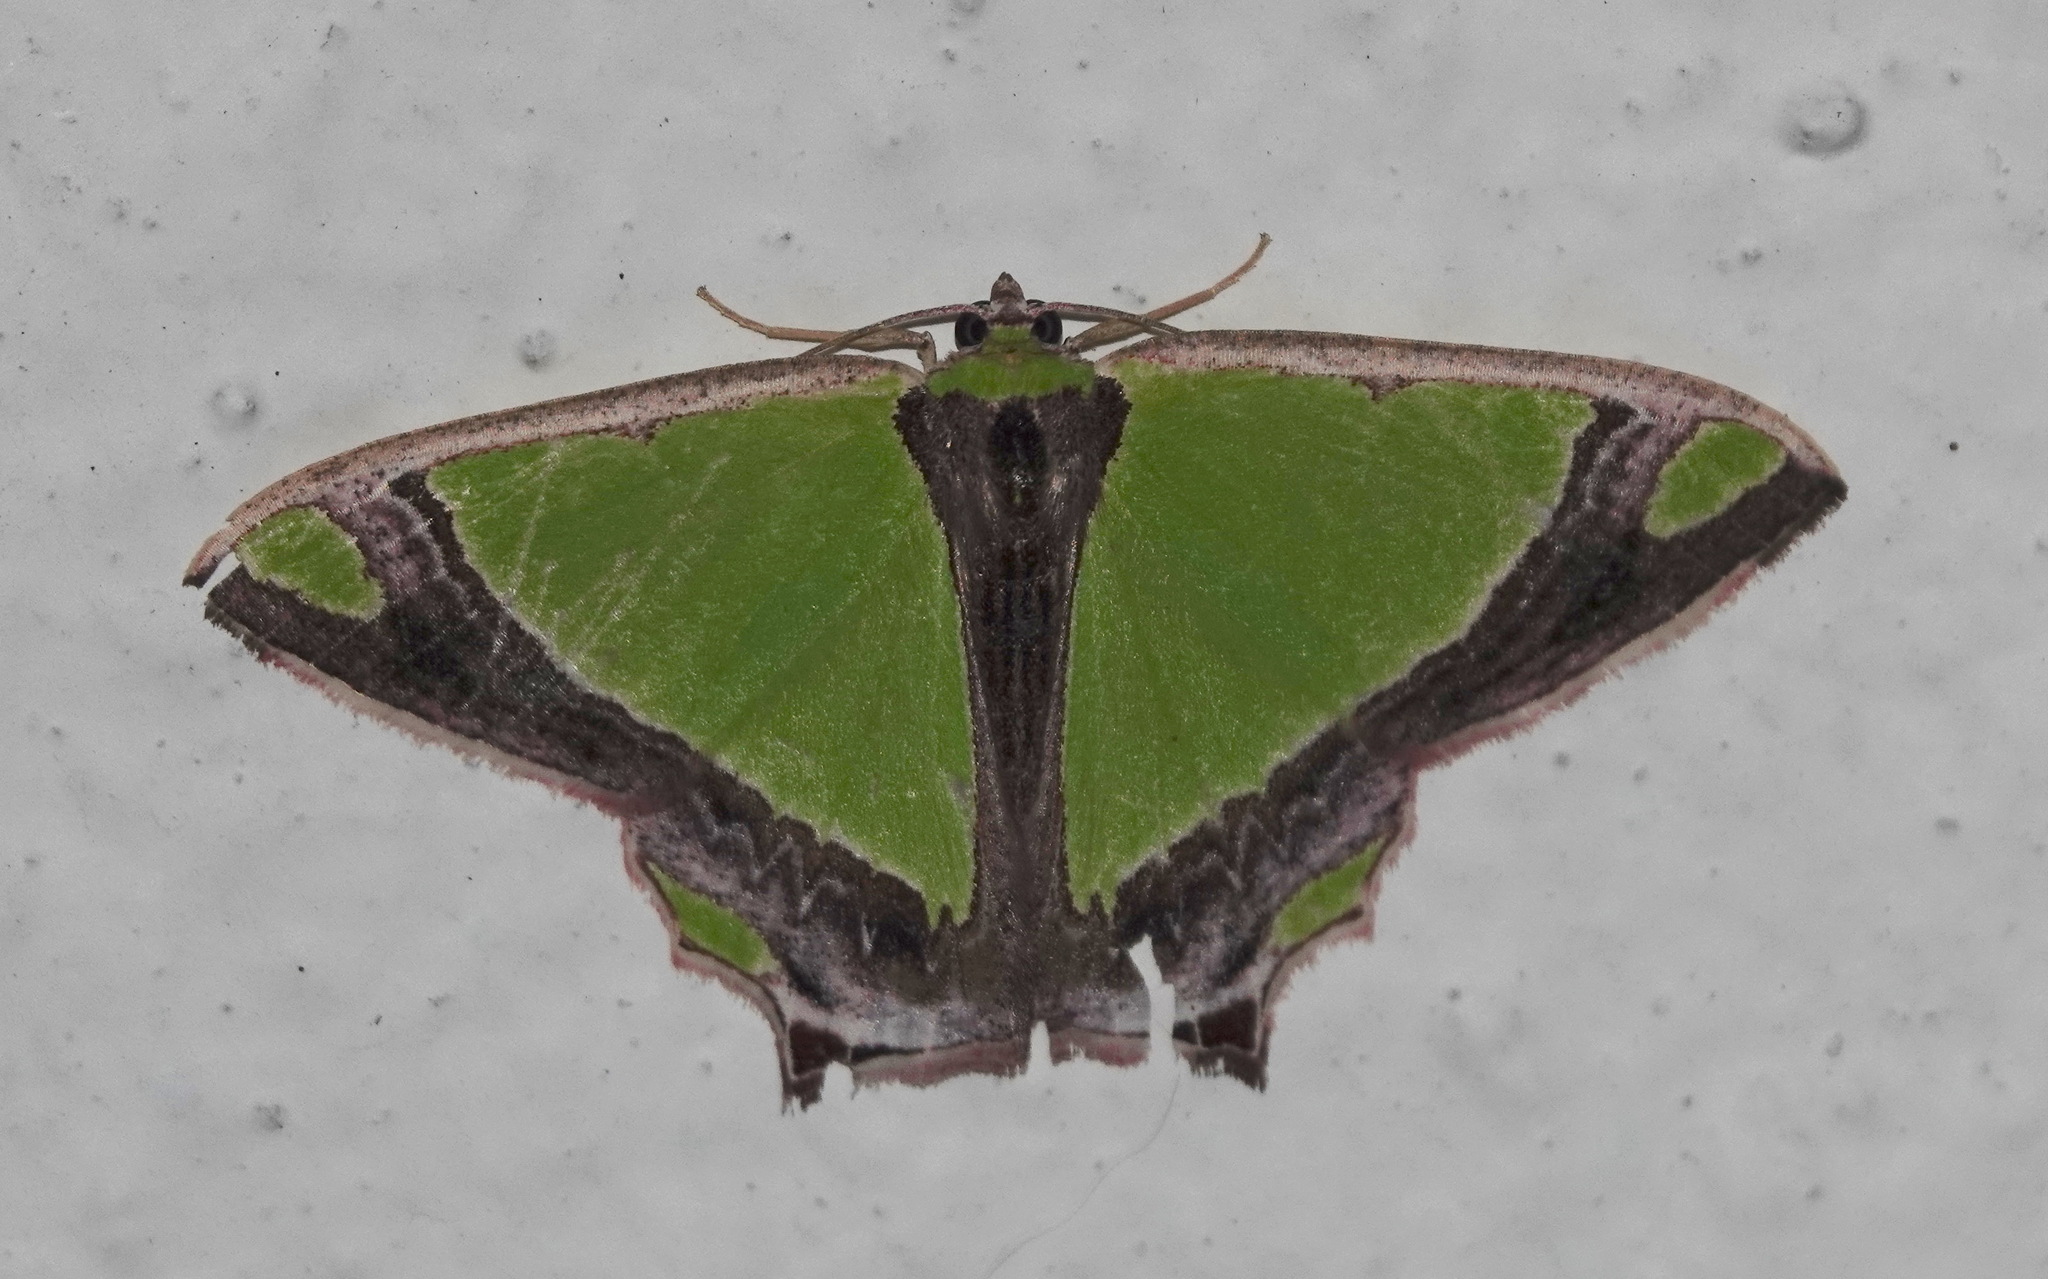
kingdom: Animalia
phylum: Arthropoda
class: Insecta
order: Lepidoptera
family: Geometridae
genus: Agathia
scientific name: Agathia laetata
